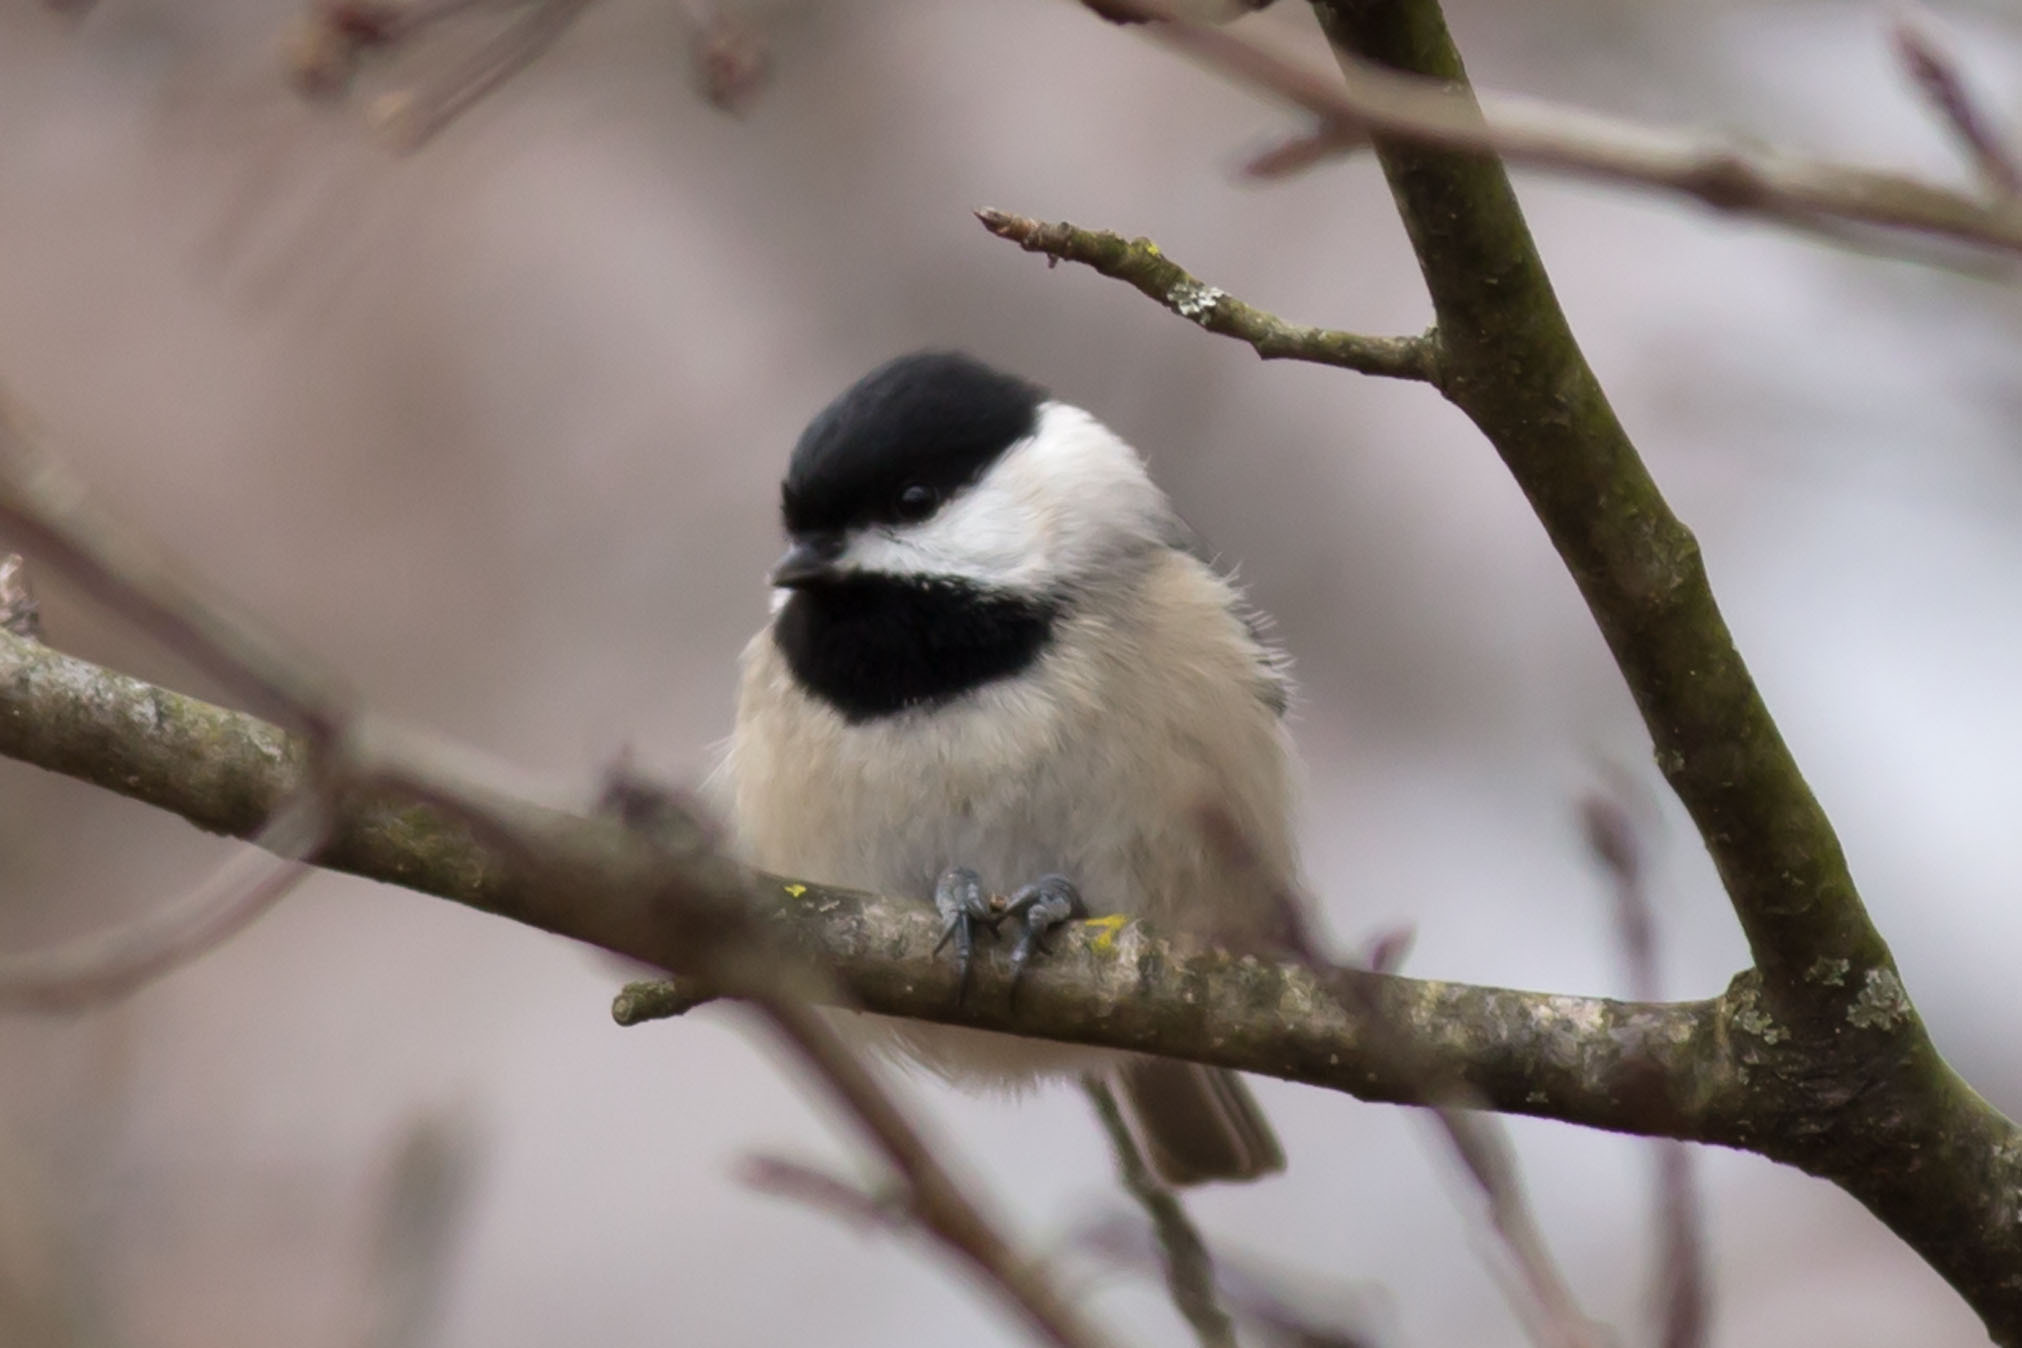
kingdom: Animalia
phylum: Chordata
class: Aves
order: Passeriformes
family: Paridae
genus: Poecile
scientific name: Poecile carolinensis
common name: Carolina chickadee
